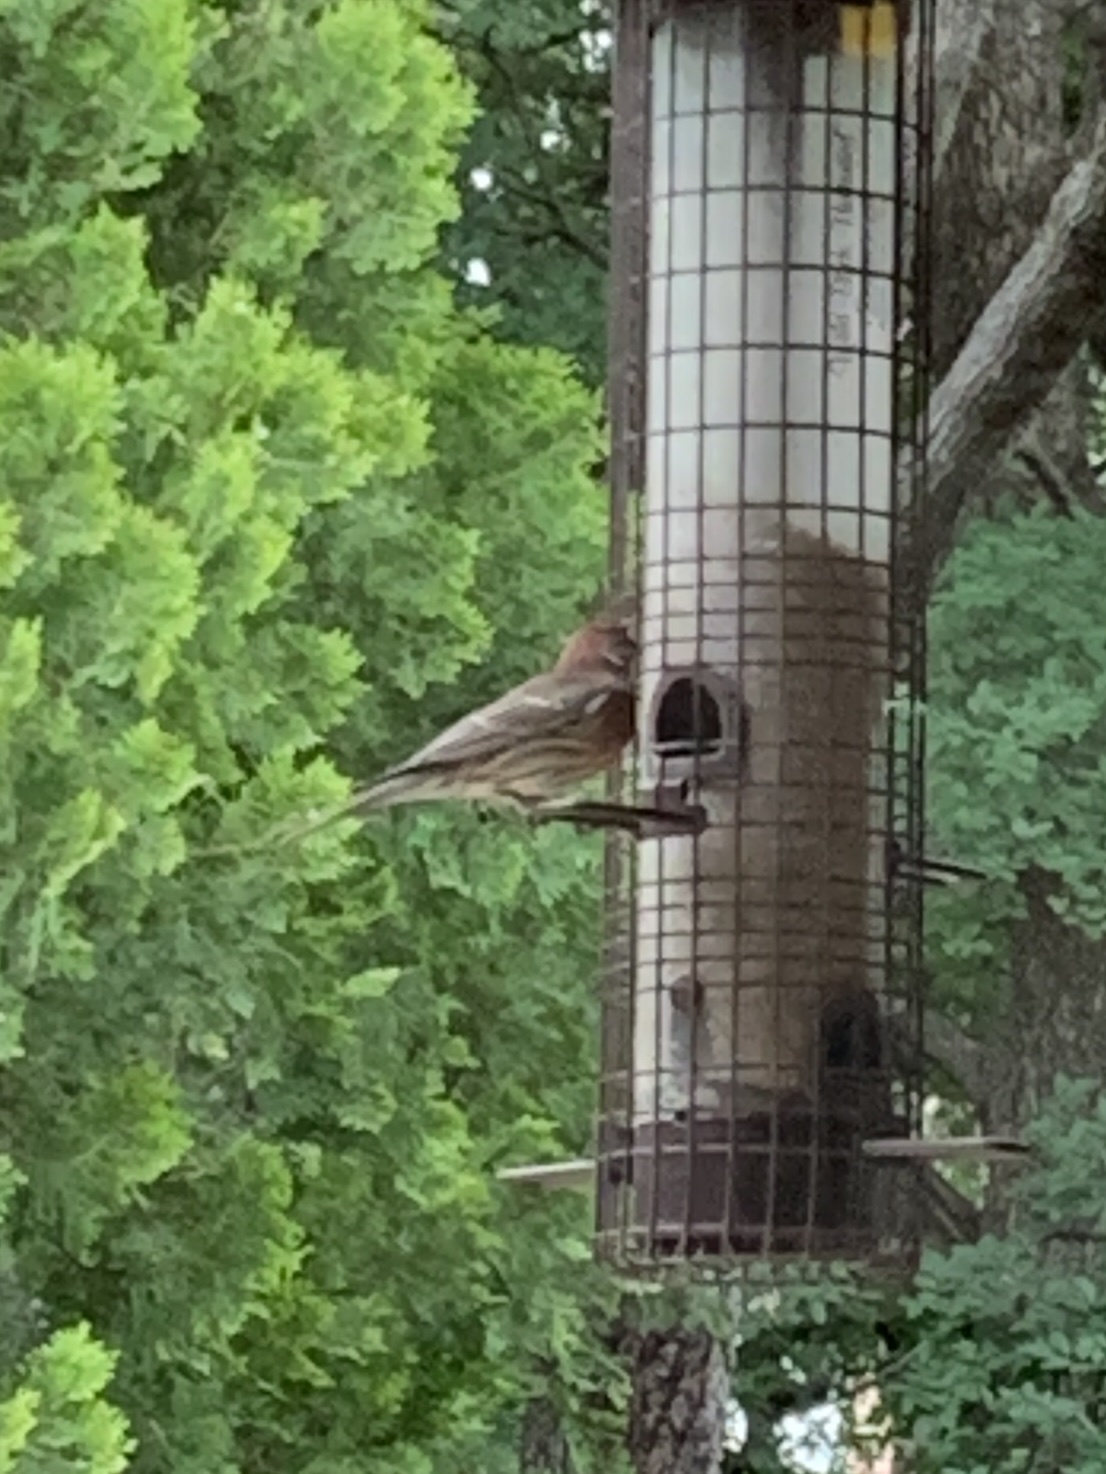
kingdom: Animalia
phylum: Chordata
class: Aves
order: Passeriformes
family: Fringillidae
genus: Haemorhous
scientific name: Haemorhous mexicanus
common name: House finch
